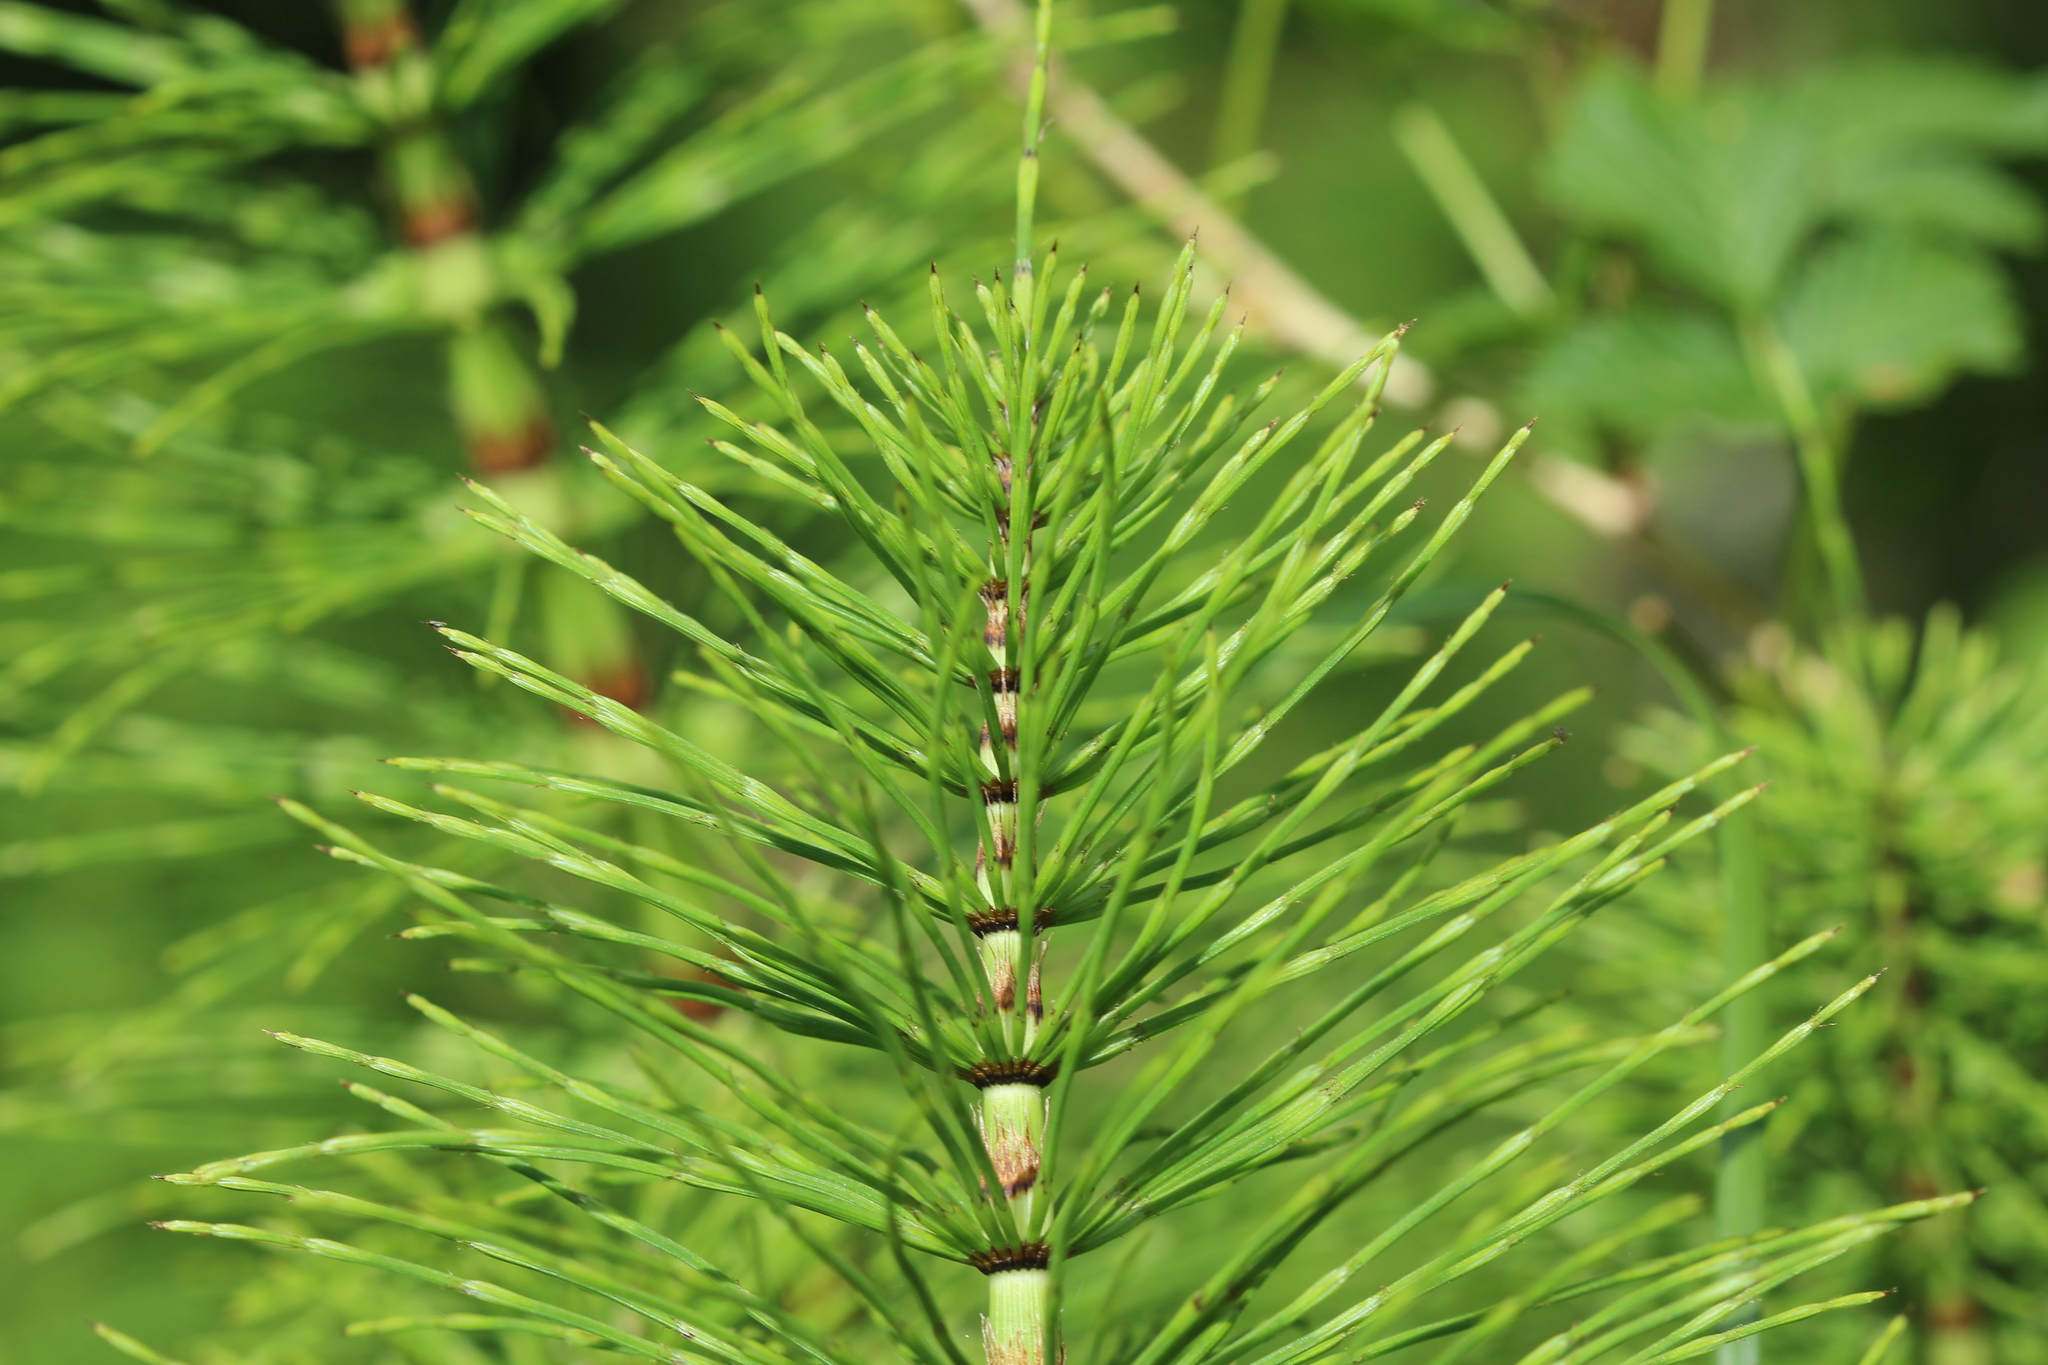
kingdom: Plantae
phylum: Tracheophyta
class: Polypodiopsida
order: Equisetales
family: Equisetaceae
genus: Equisetum
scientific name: Equisetum telmateia
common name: Great horsetail
